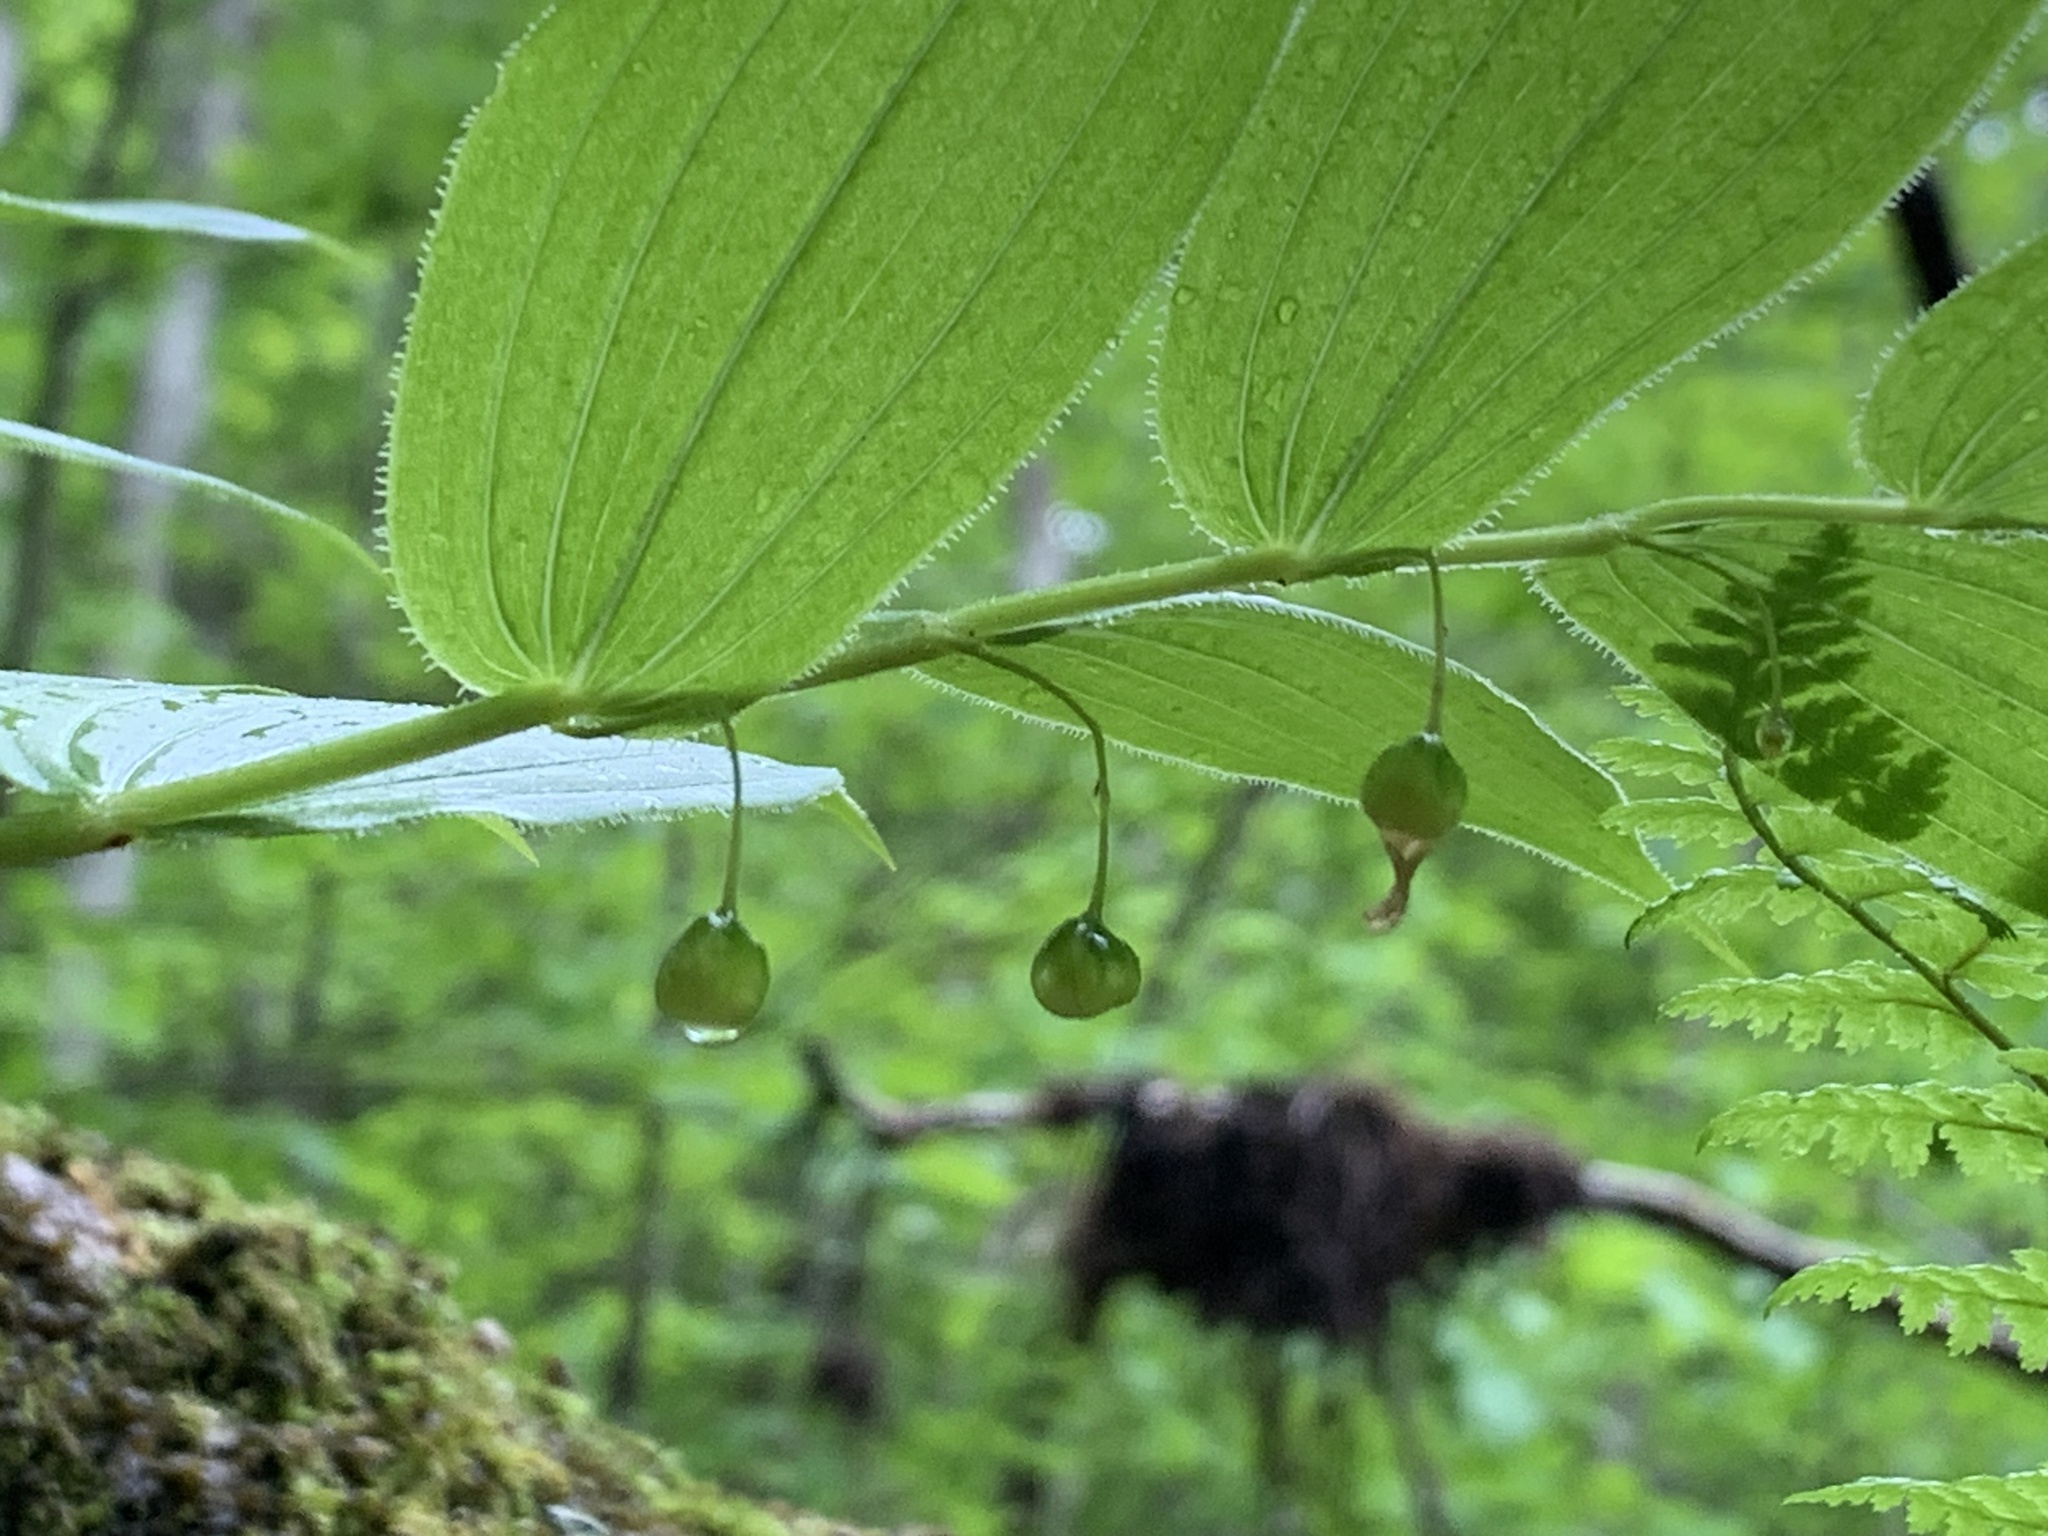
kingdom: Plantae
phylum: Tracheophyta
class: Liliopsida
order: Liliales
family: Liliaceae
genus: Streptopus
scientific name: Streptopus lanceolatus
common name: Rose mandarin
